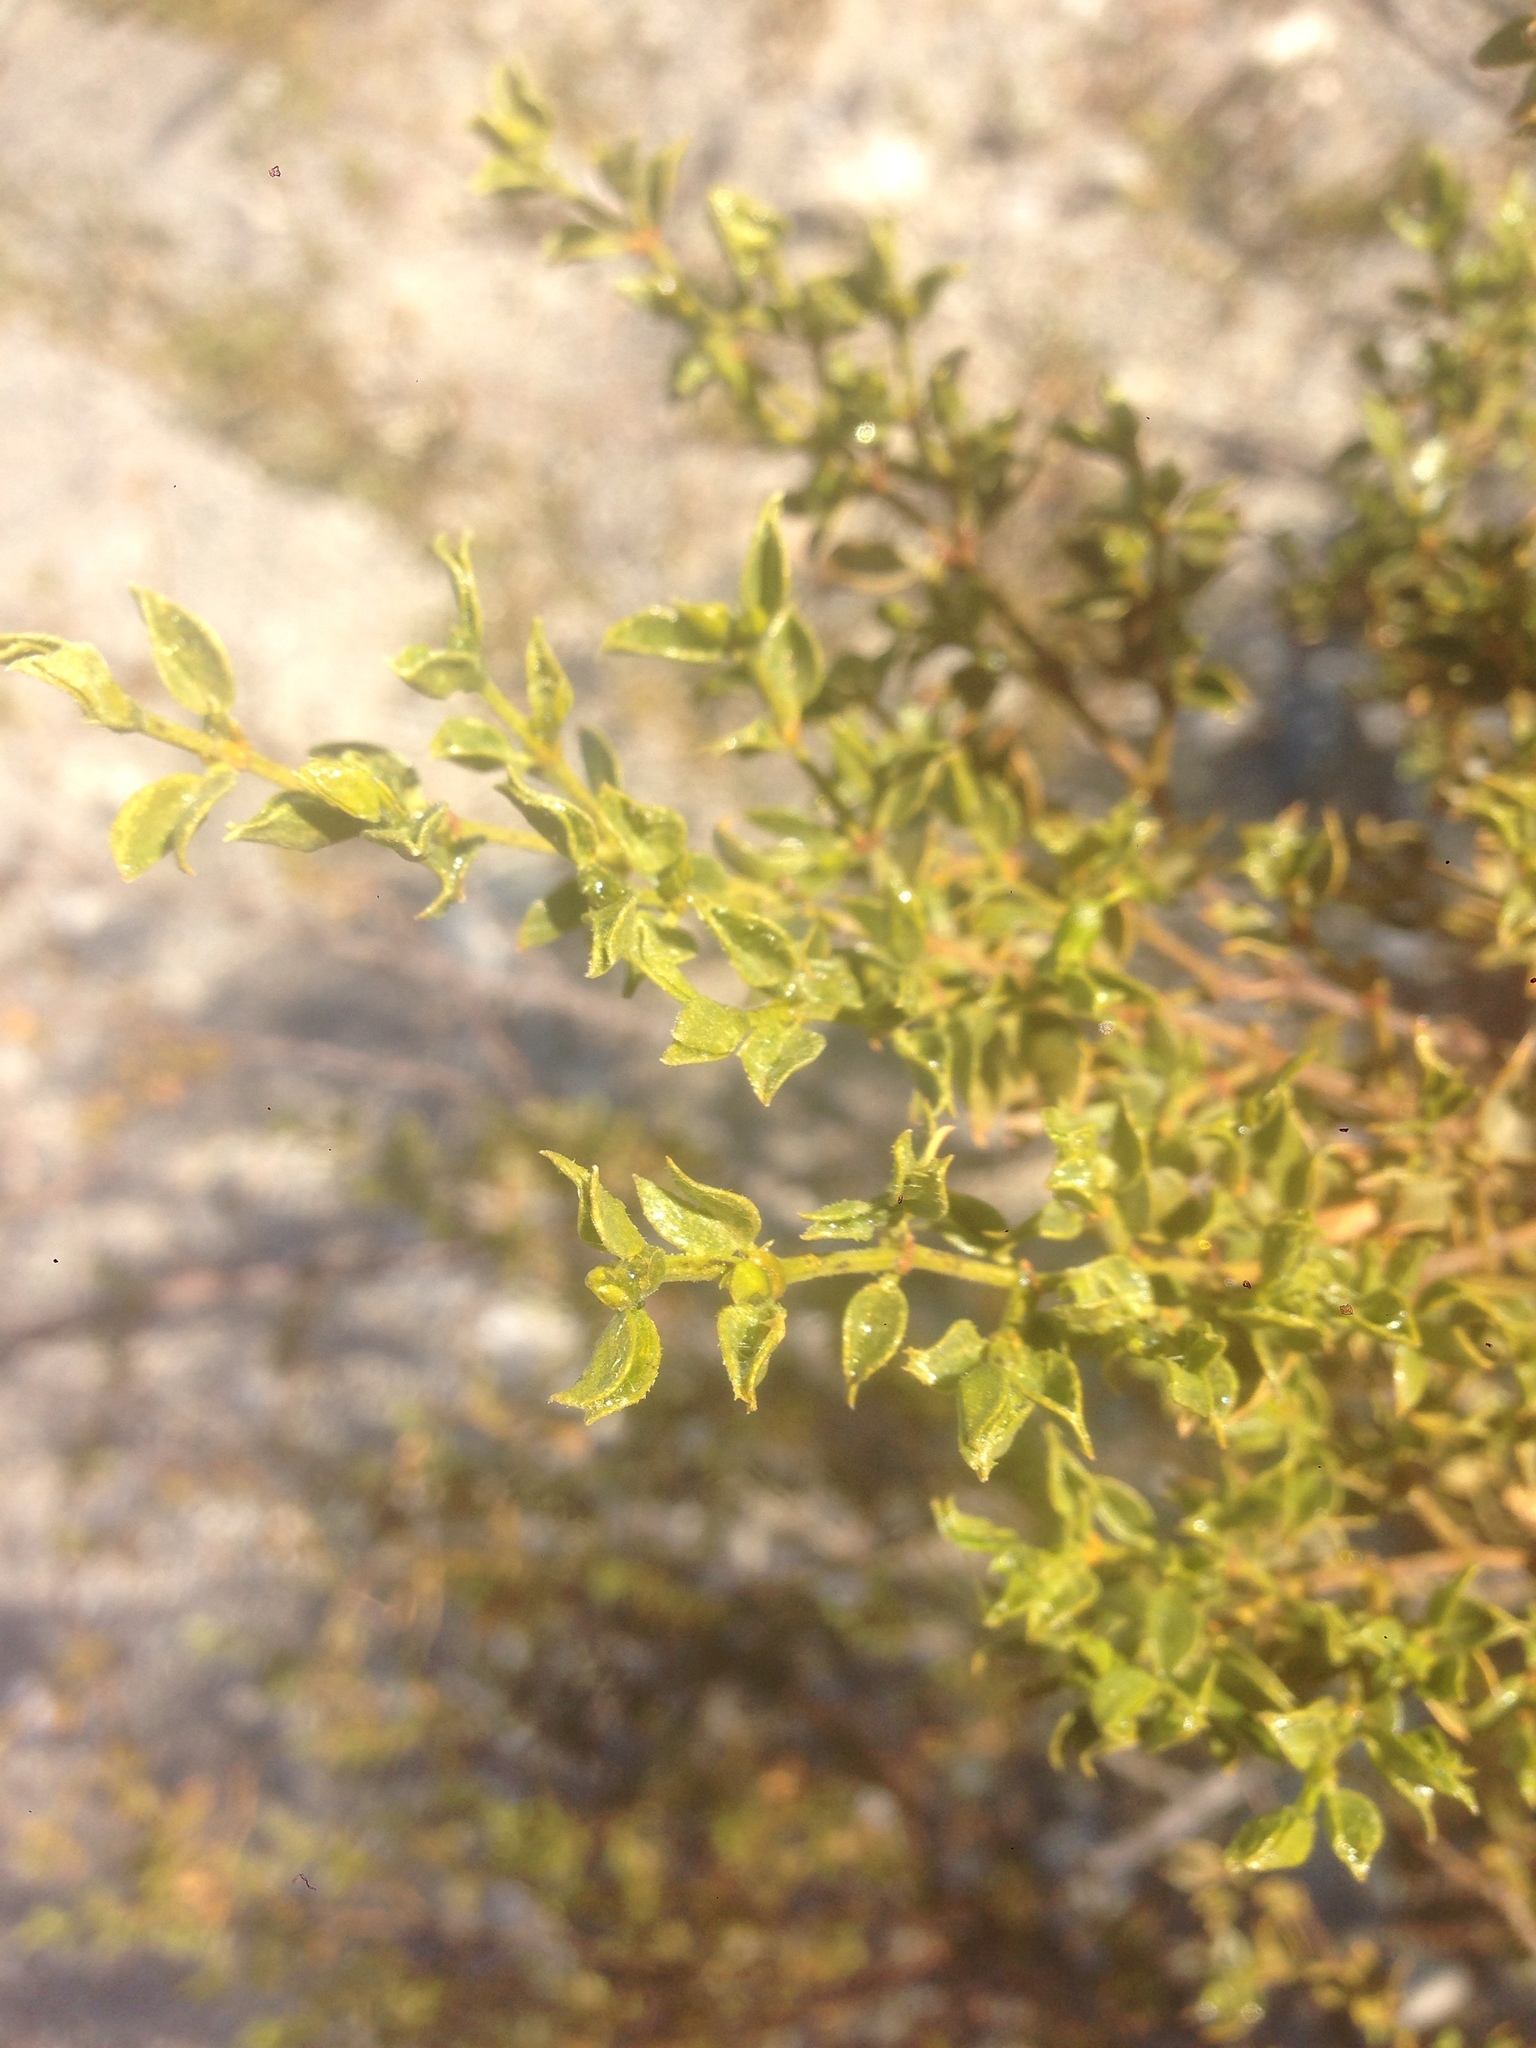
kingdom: Plantae
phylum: Tracheophyta
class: Magnoliopsida
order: Zygophyllales
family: Zygophyllaceae
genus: Larrea
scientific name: Larrea tridentata
